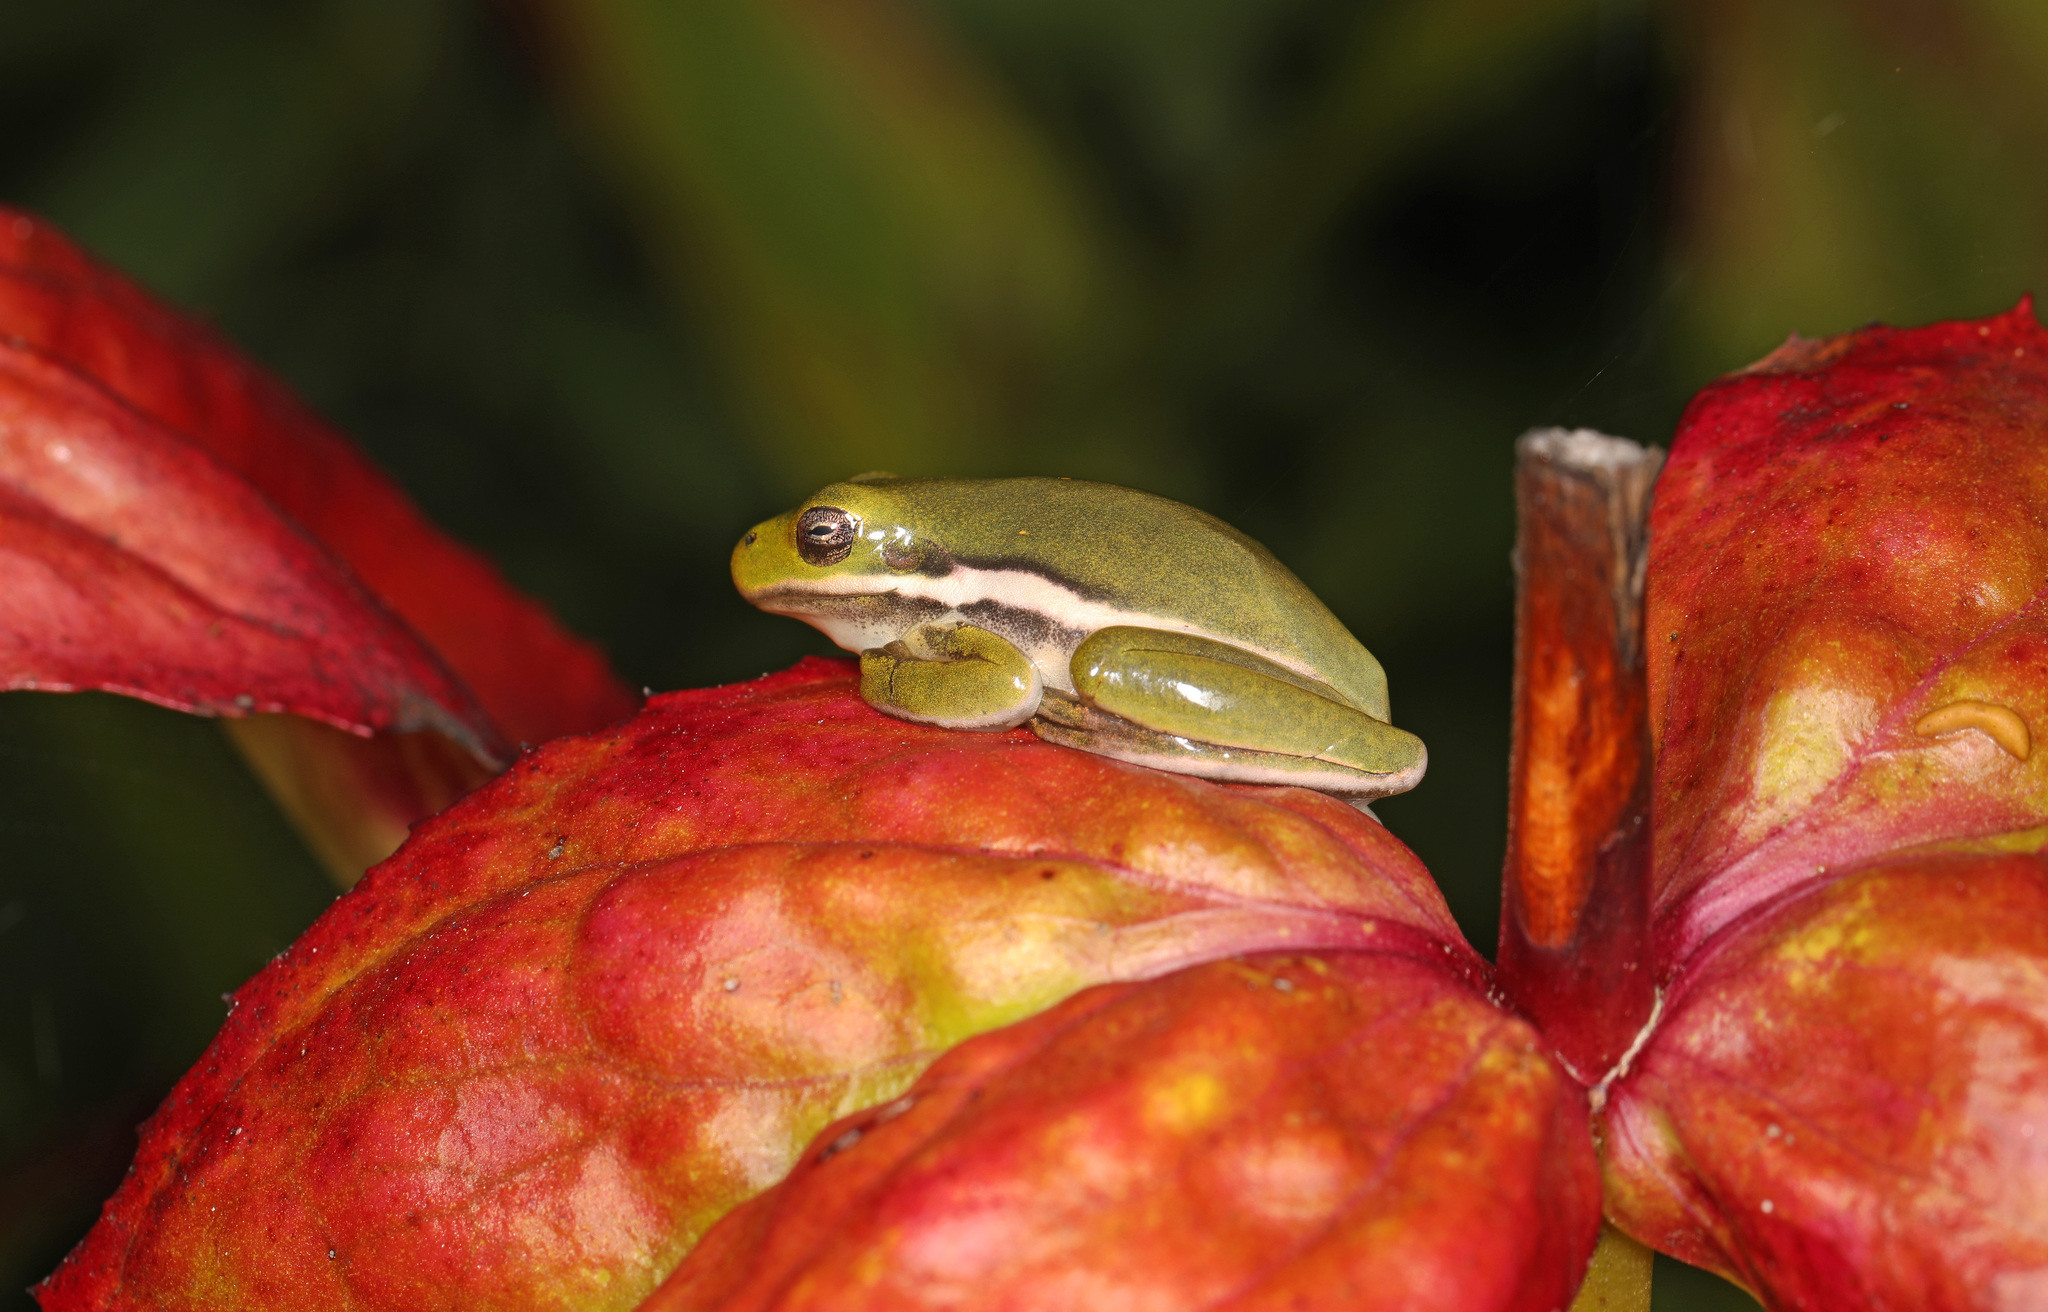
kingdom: Animalia
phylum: Chordata
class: Amphibia
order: Anura
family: Hylidae
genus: Dryophytes
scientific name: Dryophytes cinereus
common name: Green treefrog
